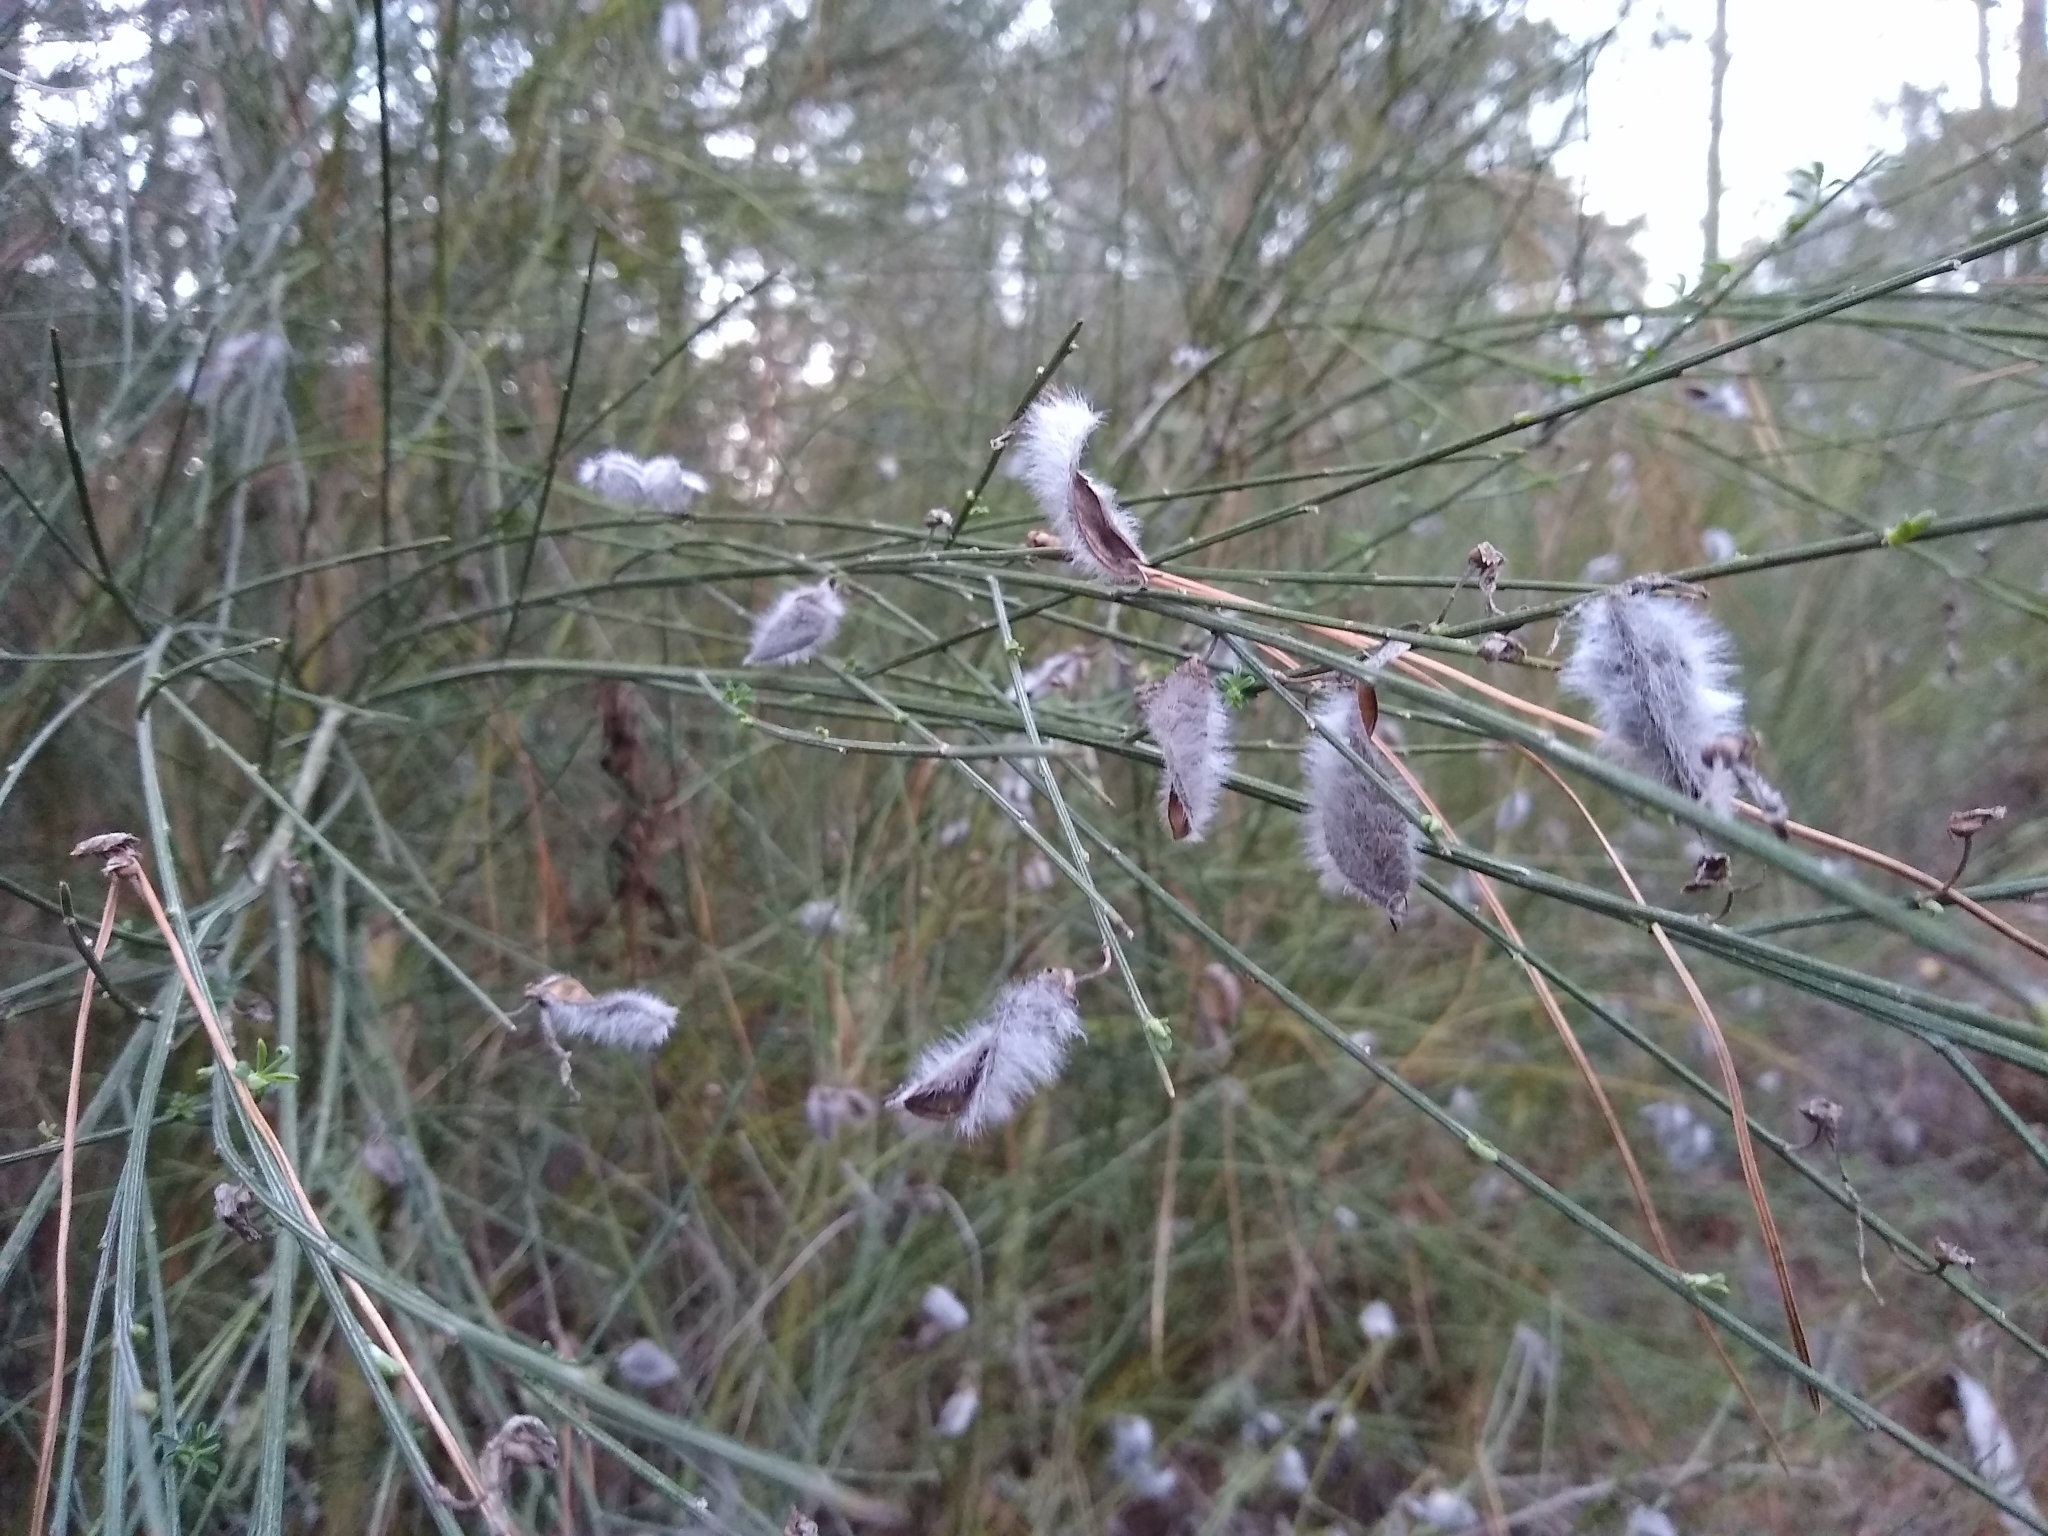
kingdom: Plantae
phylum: Tracheophyta
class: Magnoliopsida
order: Fabales
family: Fabaceae
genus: Cytisus
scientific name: Cytisus striatus
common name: Hairy-fruited broom
